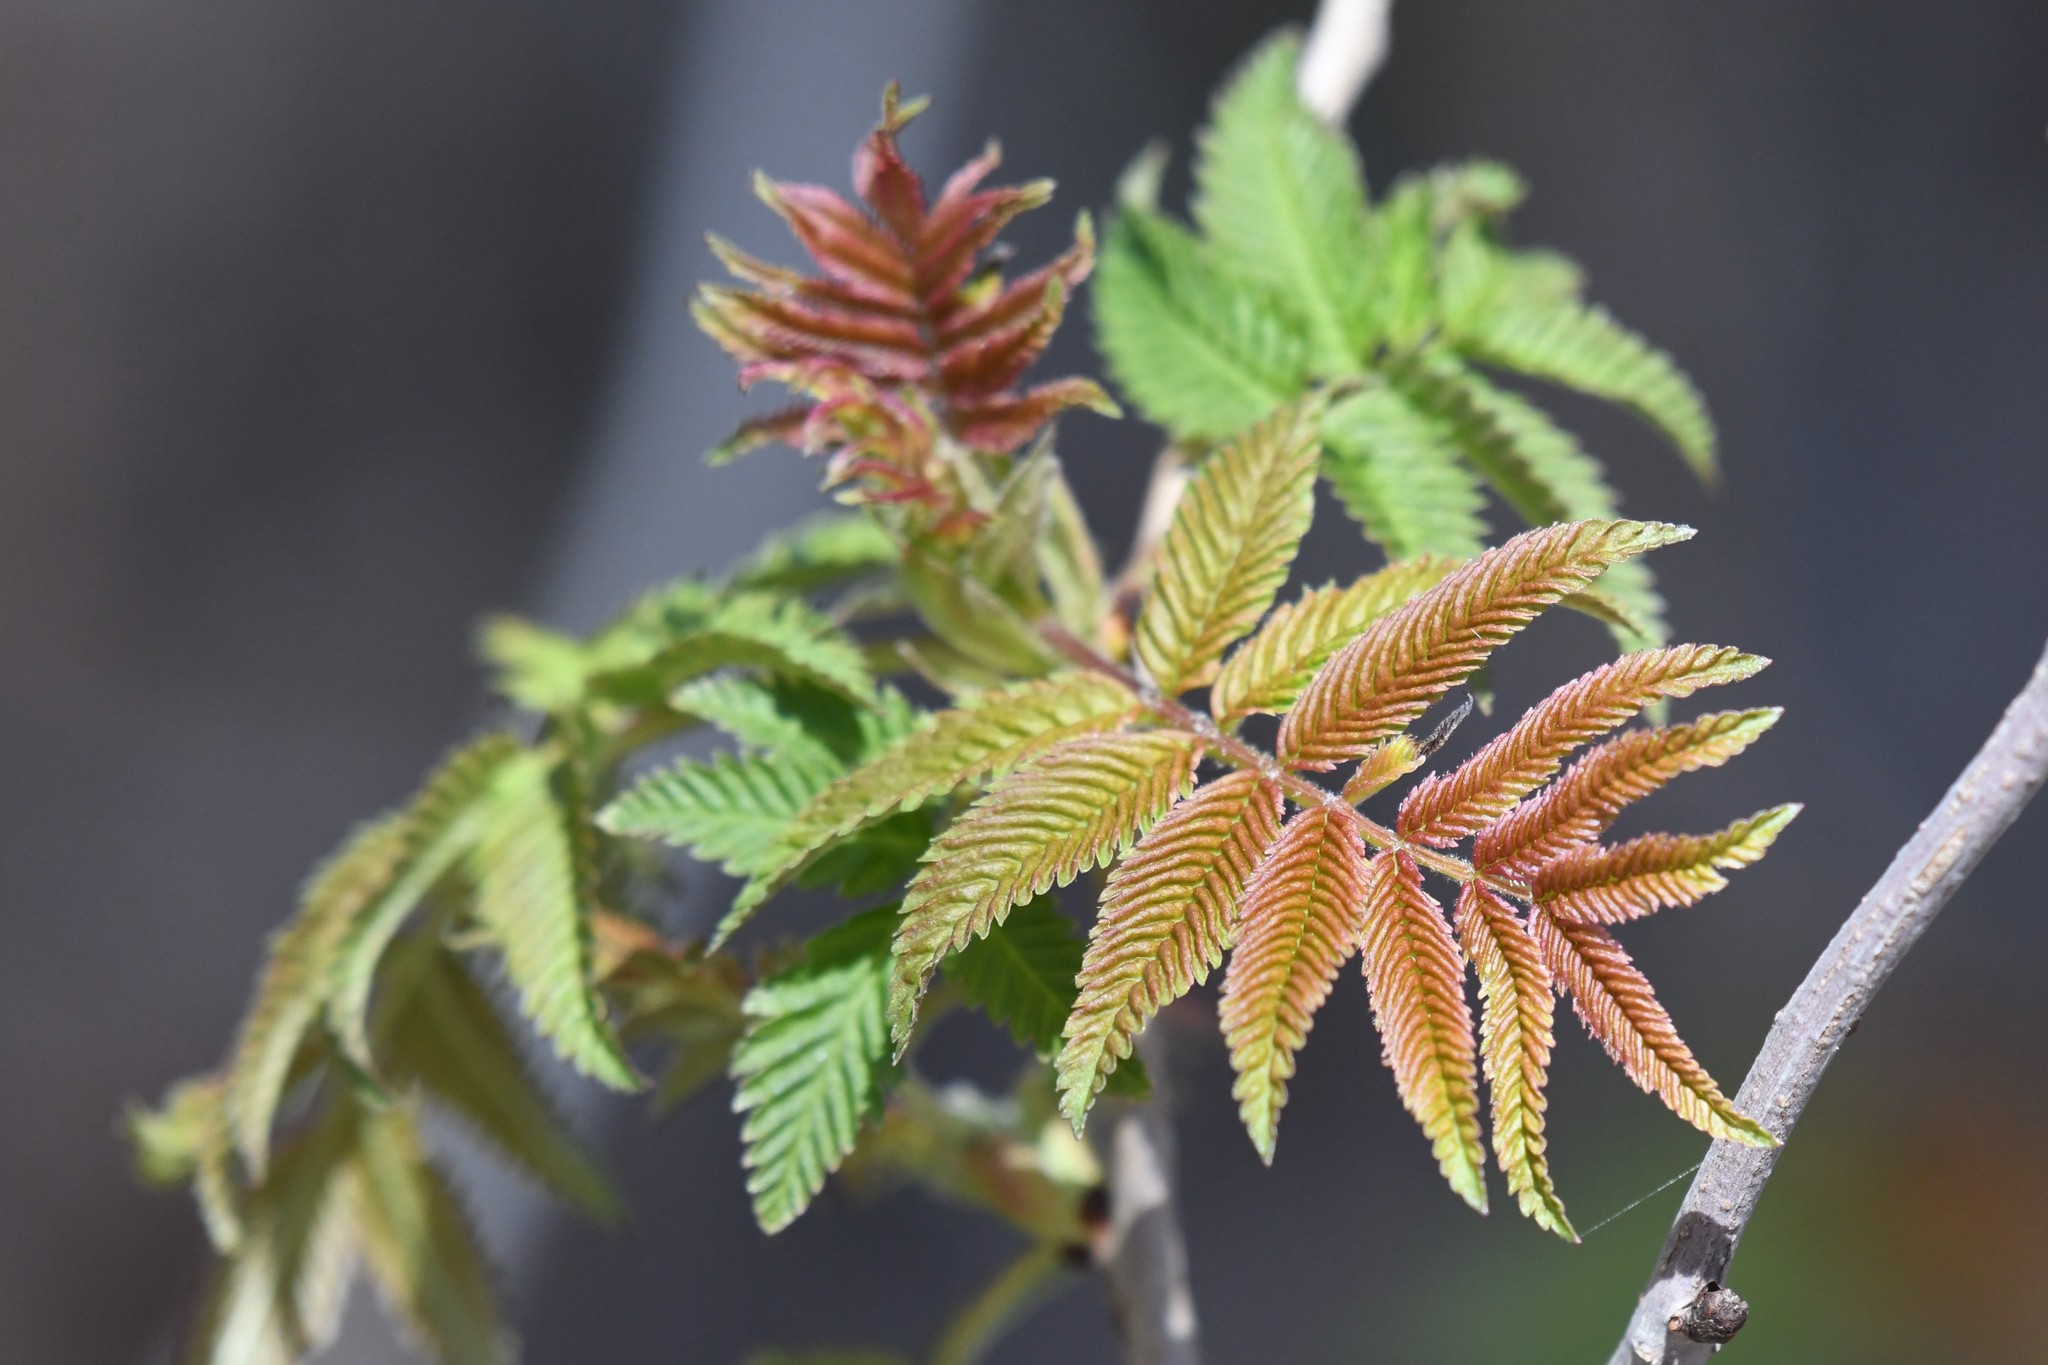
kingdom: Plantae
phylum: Tracheophyta
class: Magnoliopsida
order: Rosales
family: Rosaceae
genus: Sorbaria
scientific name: Sorbaria sorbifolia
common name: False spiraea
